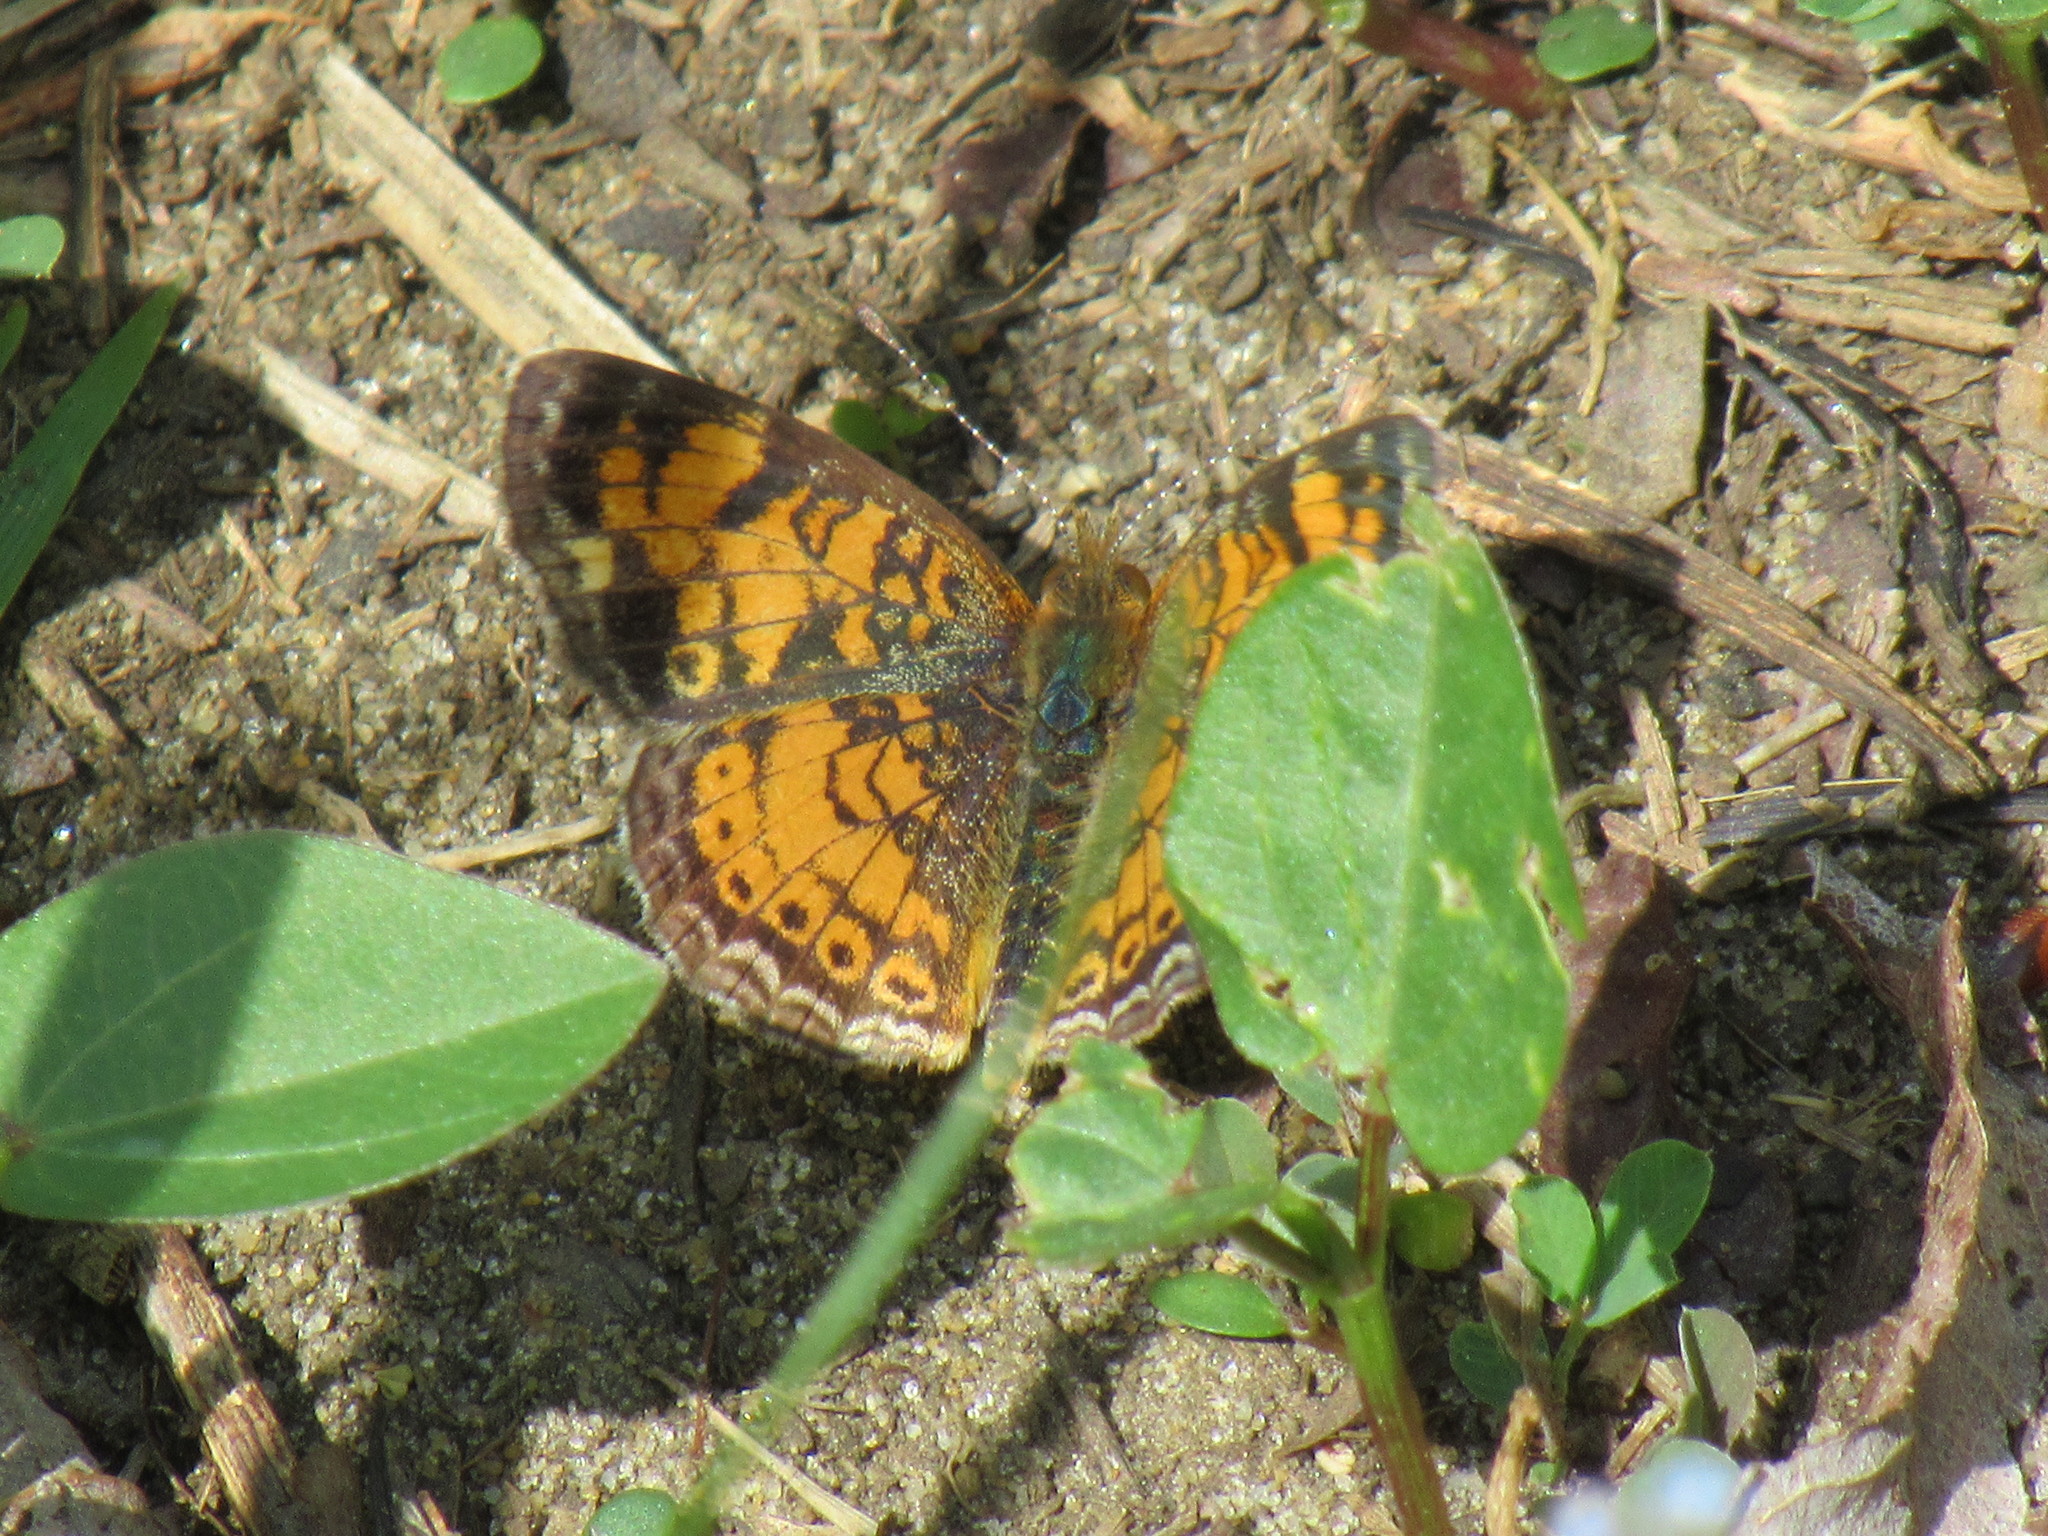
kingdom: Animalia
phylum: Arthropoda
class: Insecta
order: Lepidoptera
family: Nymphalidae
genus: Phyciodes
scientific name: Phyciodes tharos
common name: Pearl crescent
